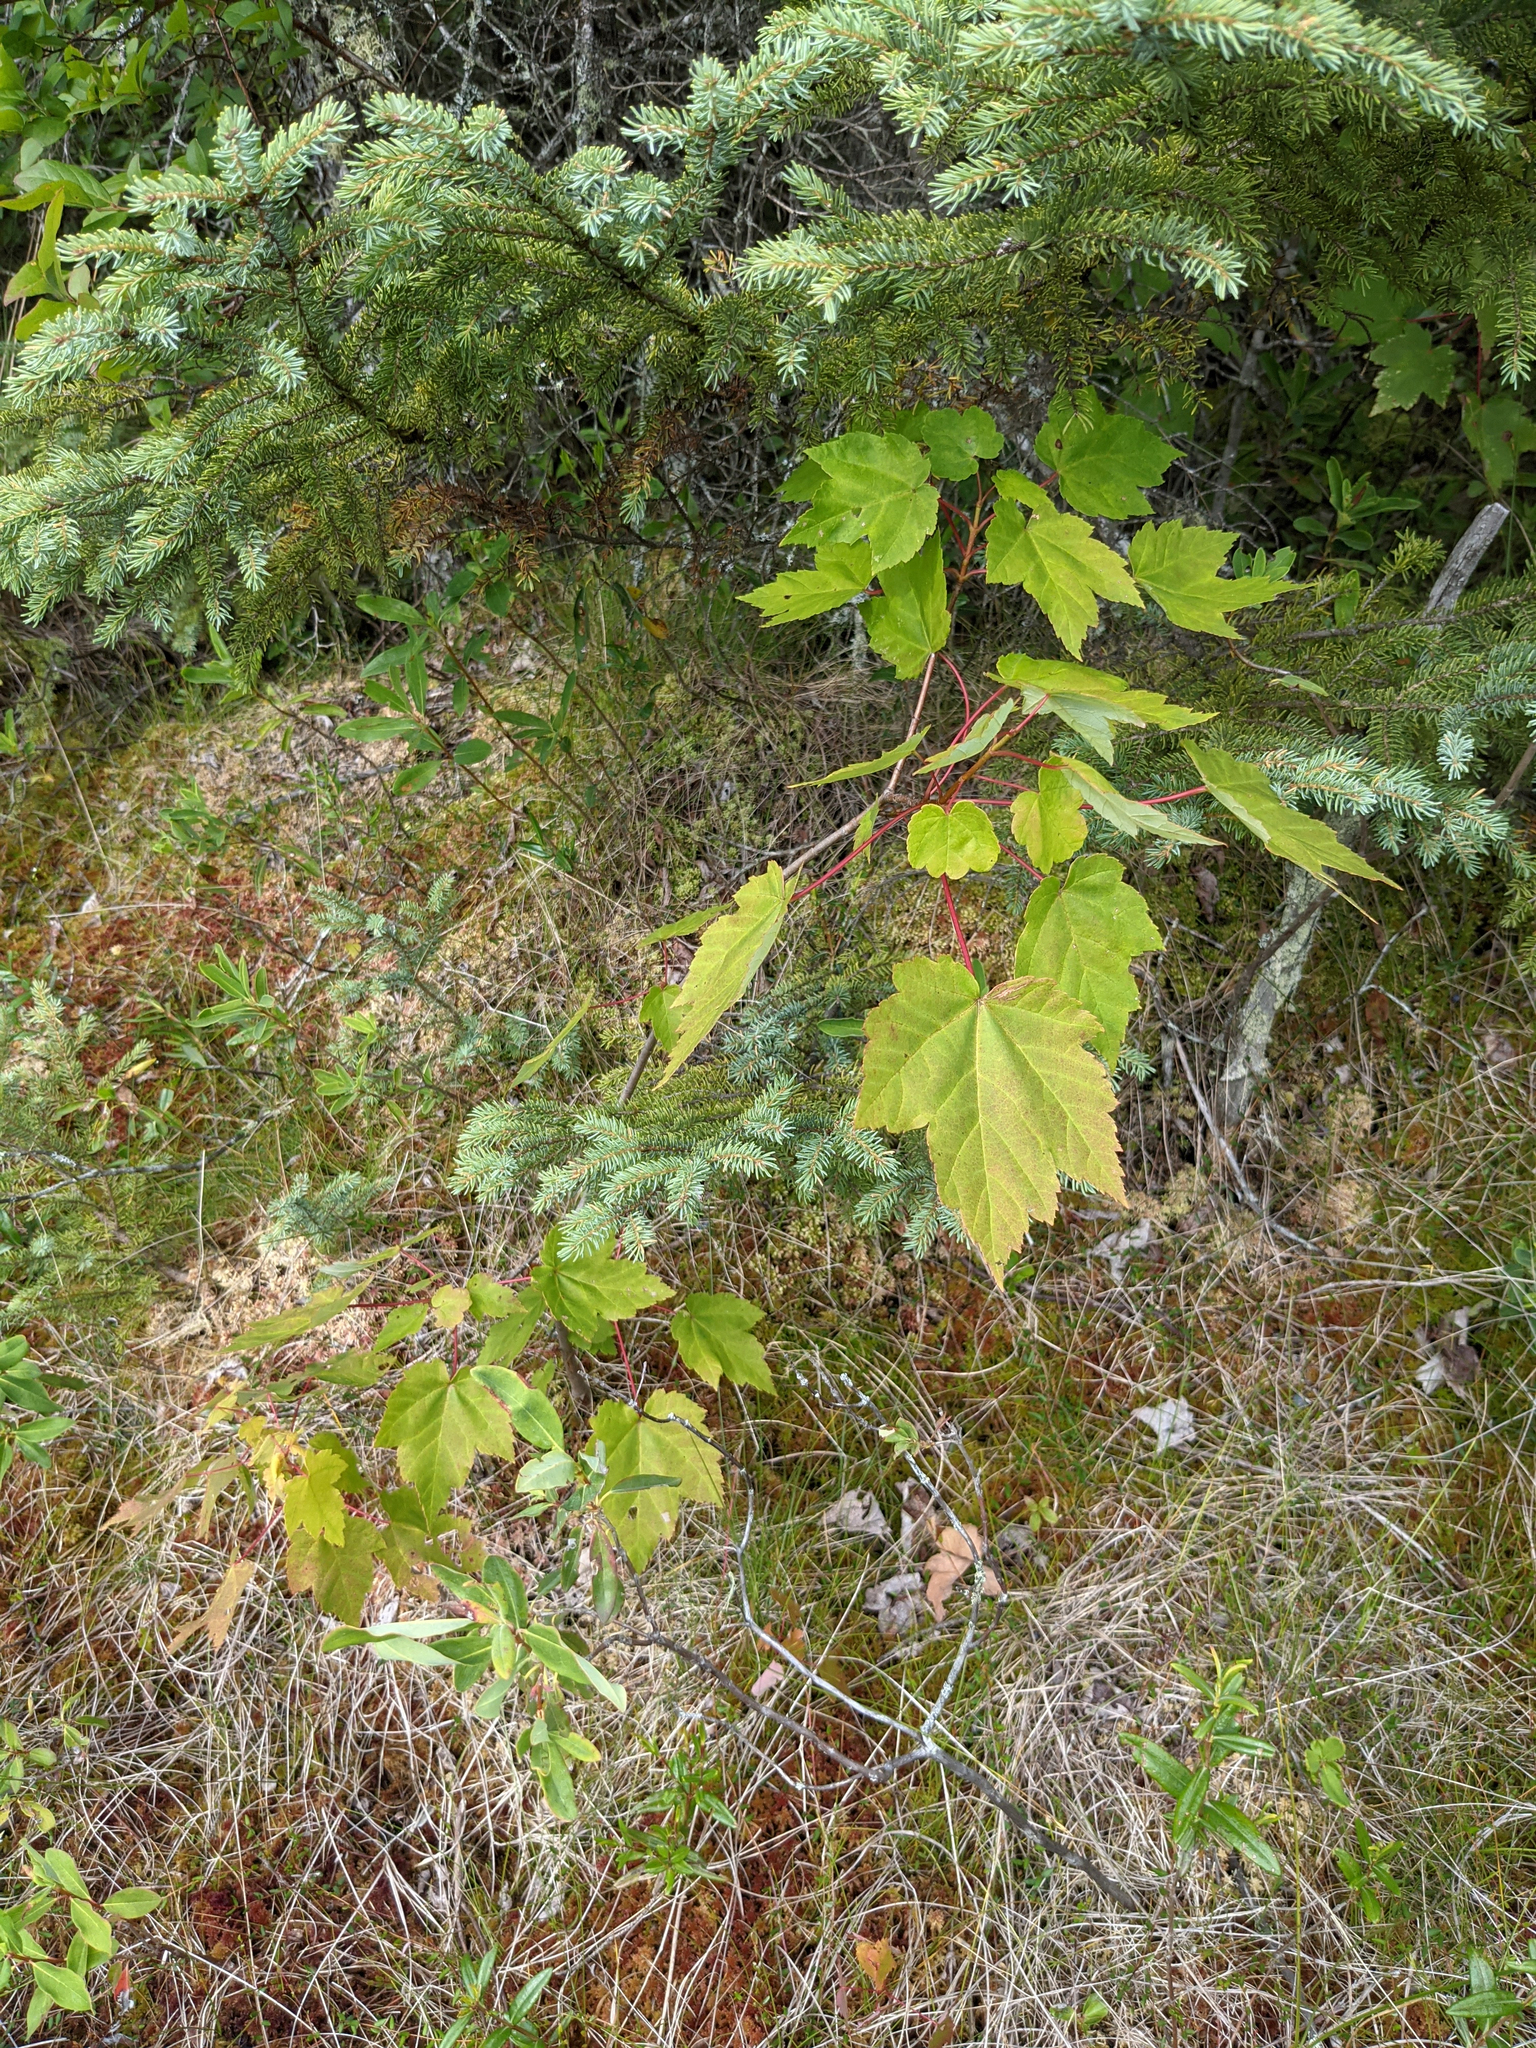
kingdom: Plantae
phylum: Tracheophyta
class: Magnoliopsida
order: Sapindales
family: Sapindaceae
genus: Acer
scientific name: Acer rubrum
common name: Red maple
